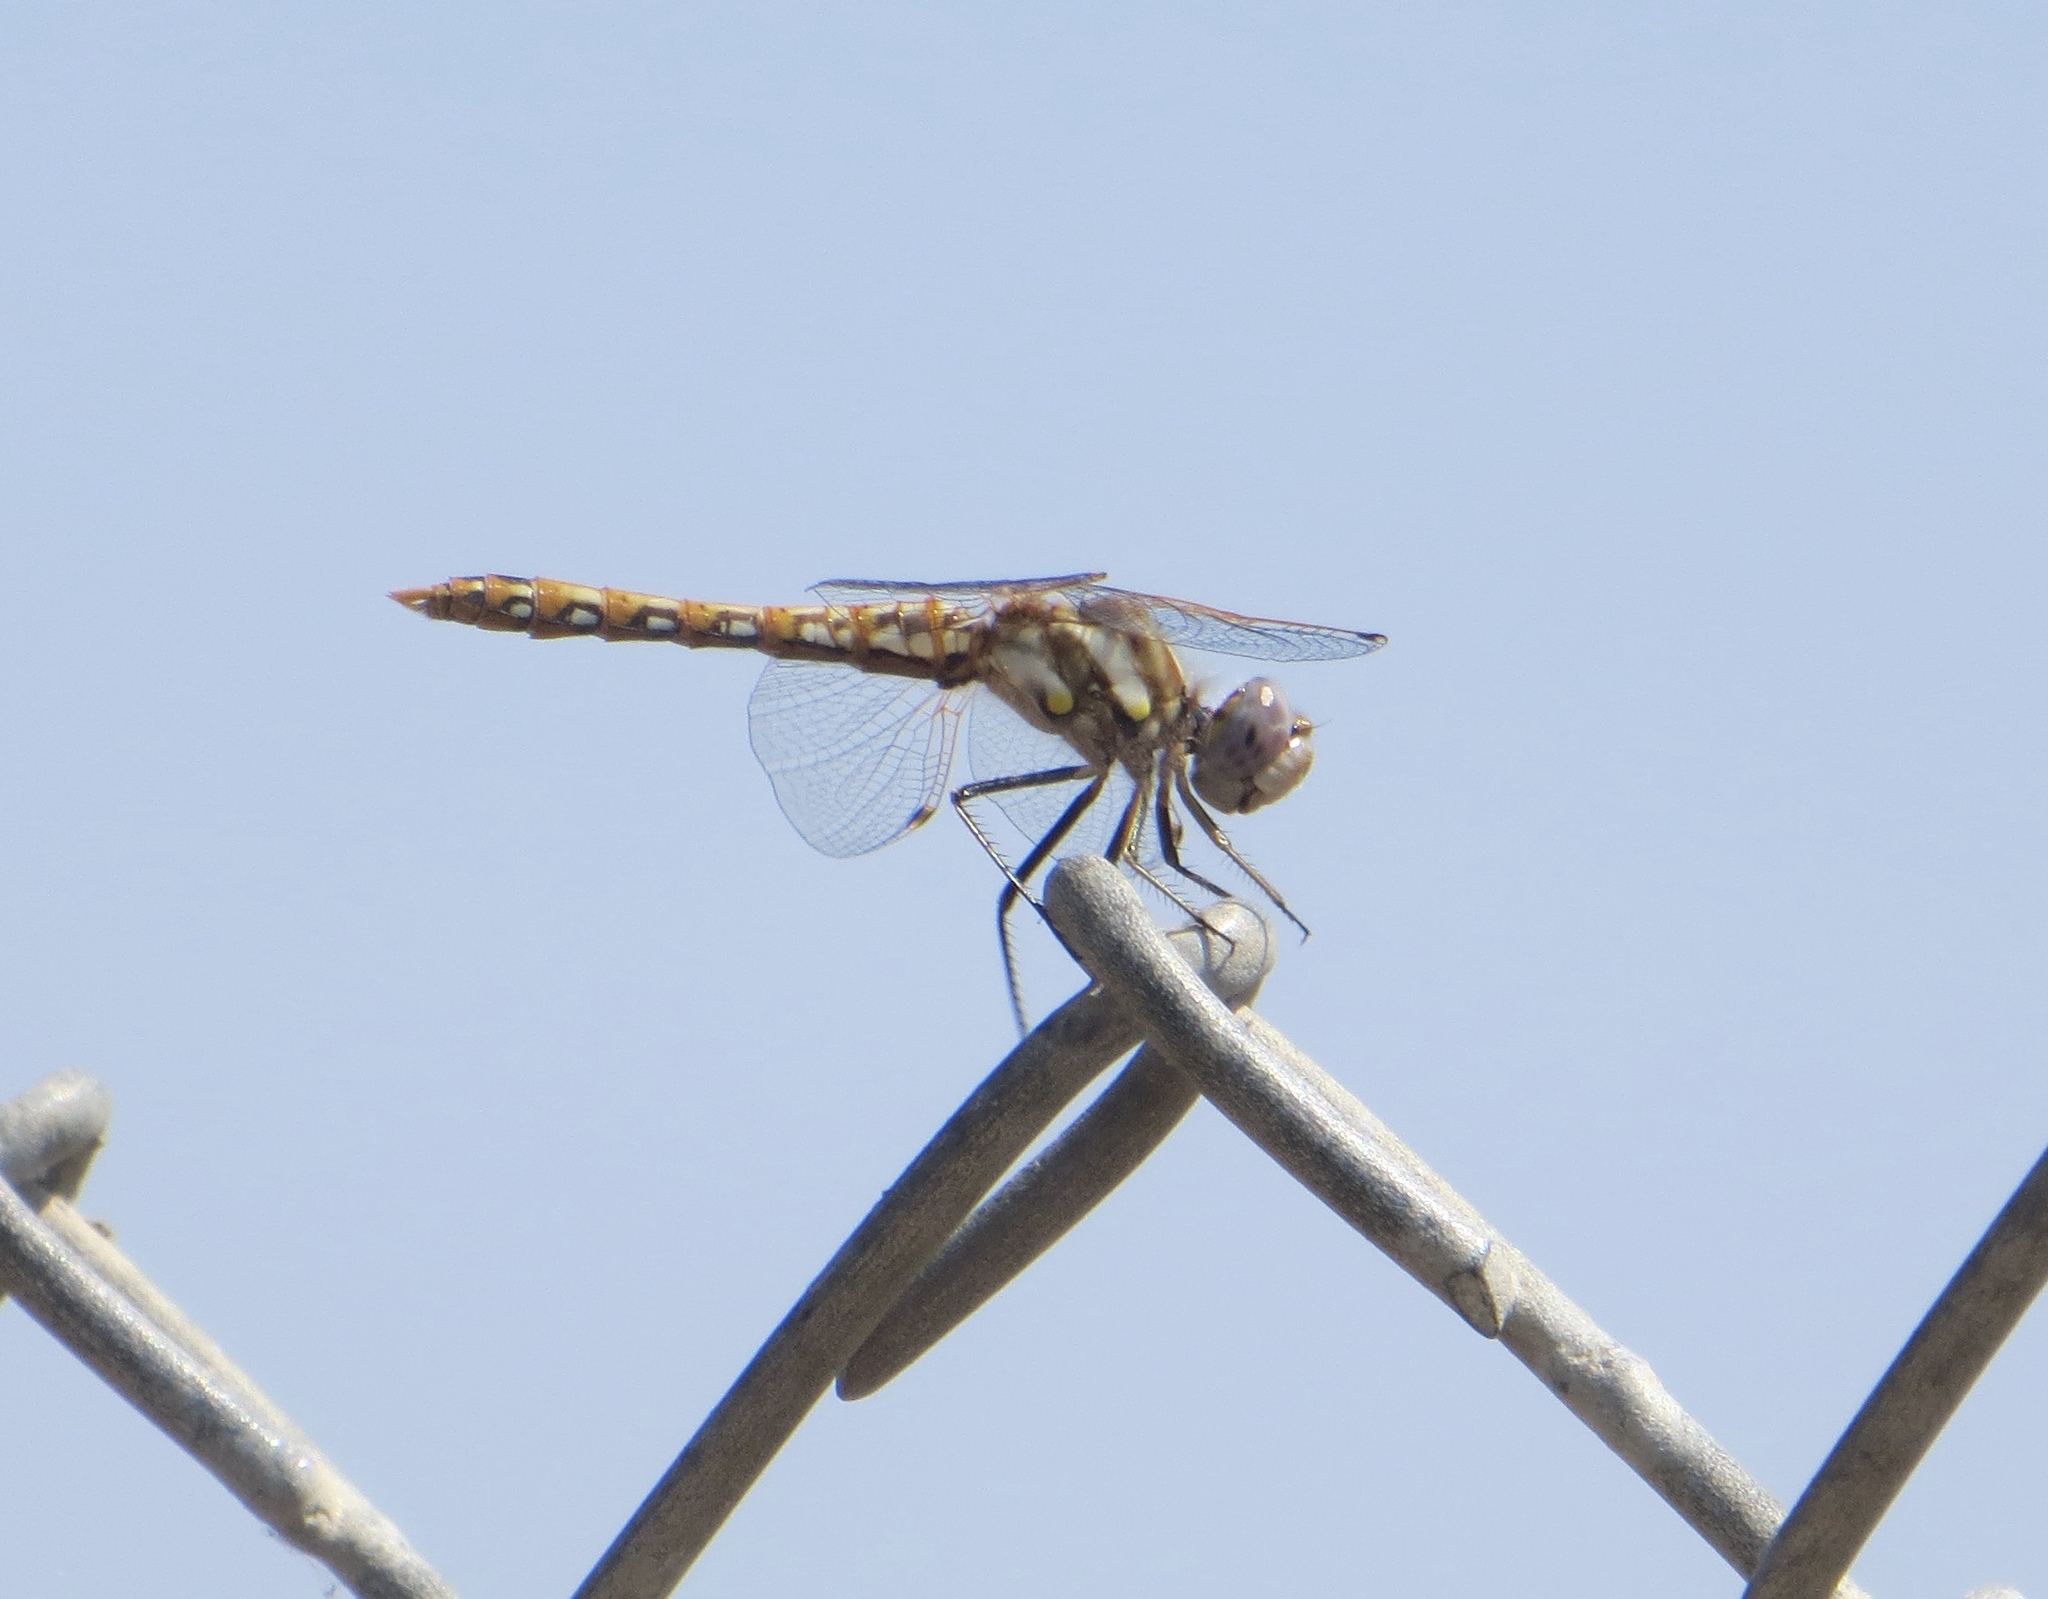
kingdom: Animalia
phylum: Arthropoda
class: Insecta
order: Odonata
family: Libellulidae
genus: Sympetrum
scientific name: Sympetrum corruptum
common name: Variegated meadowhawk
